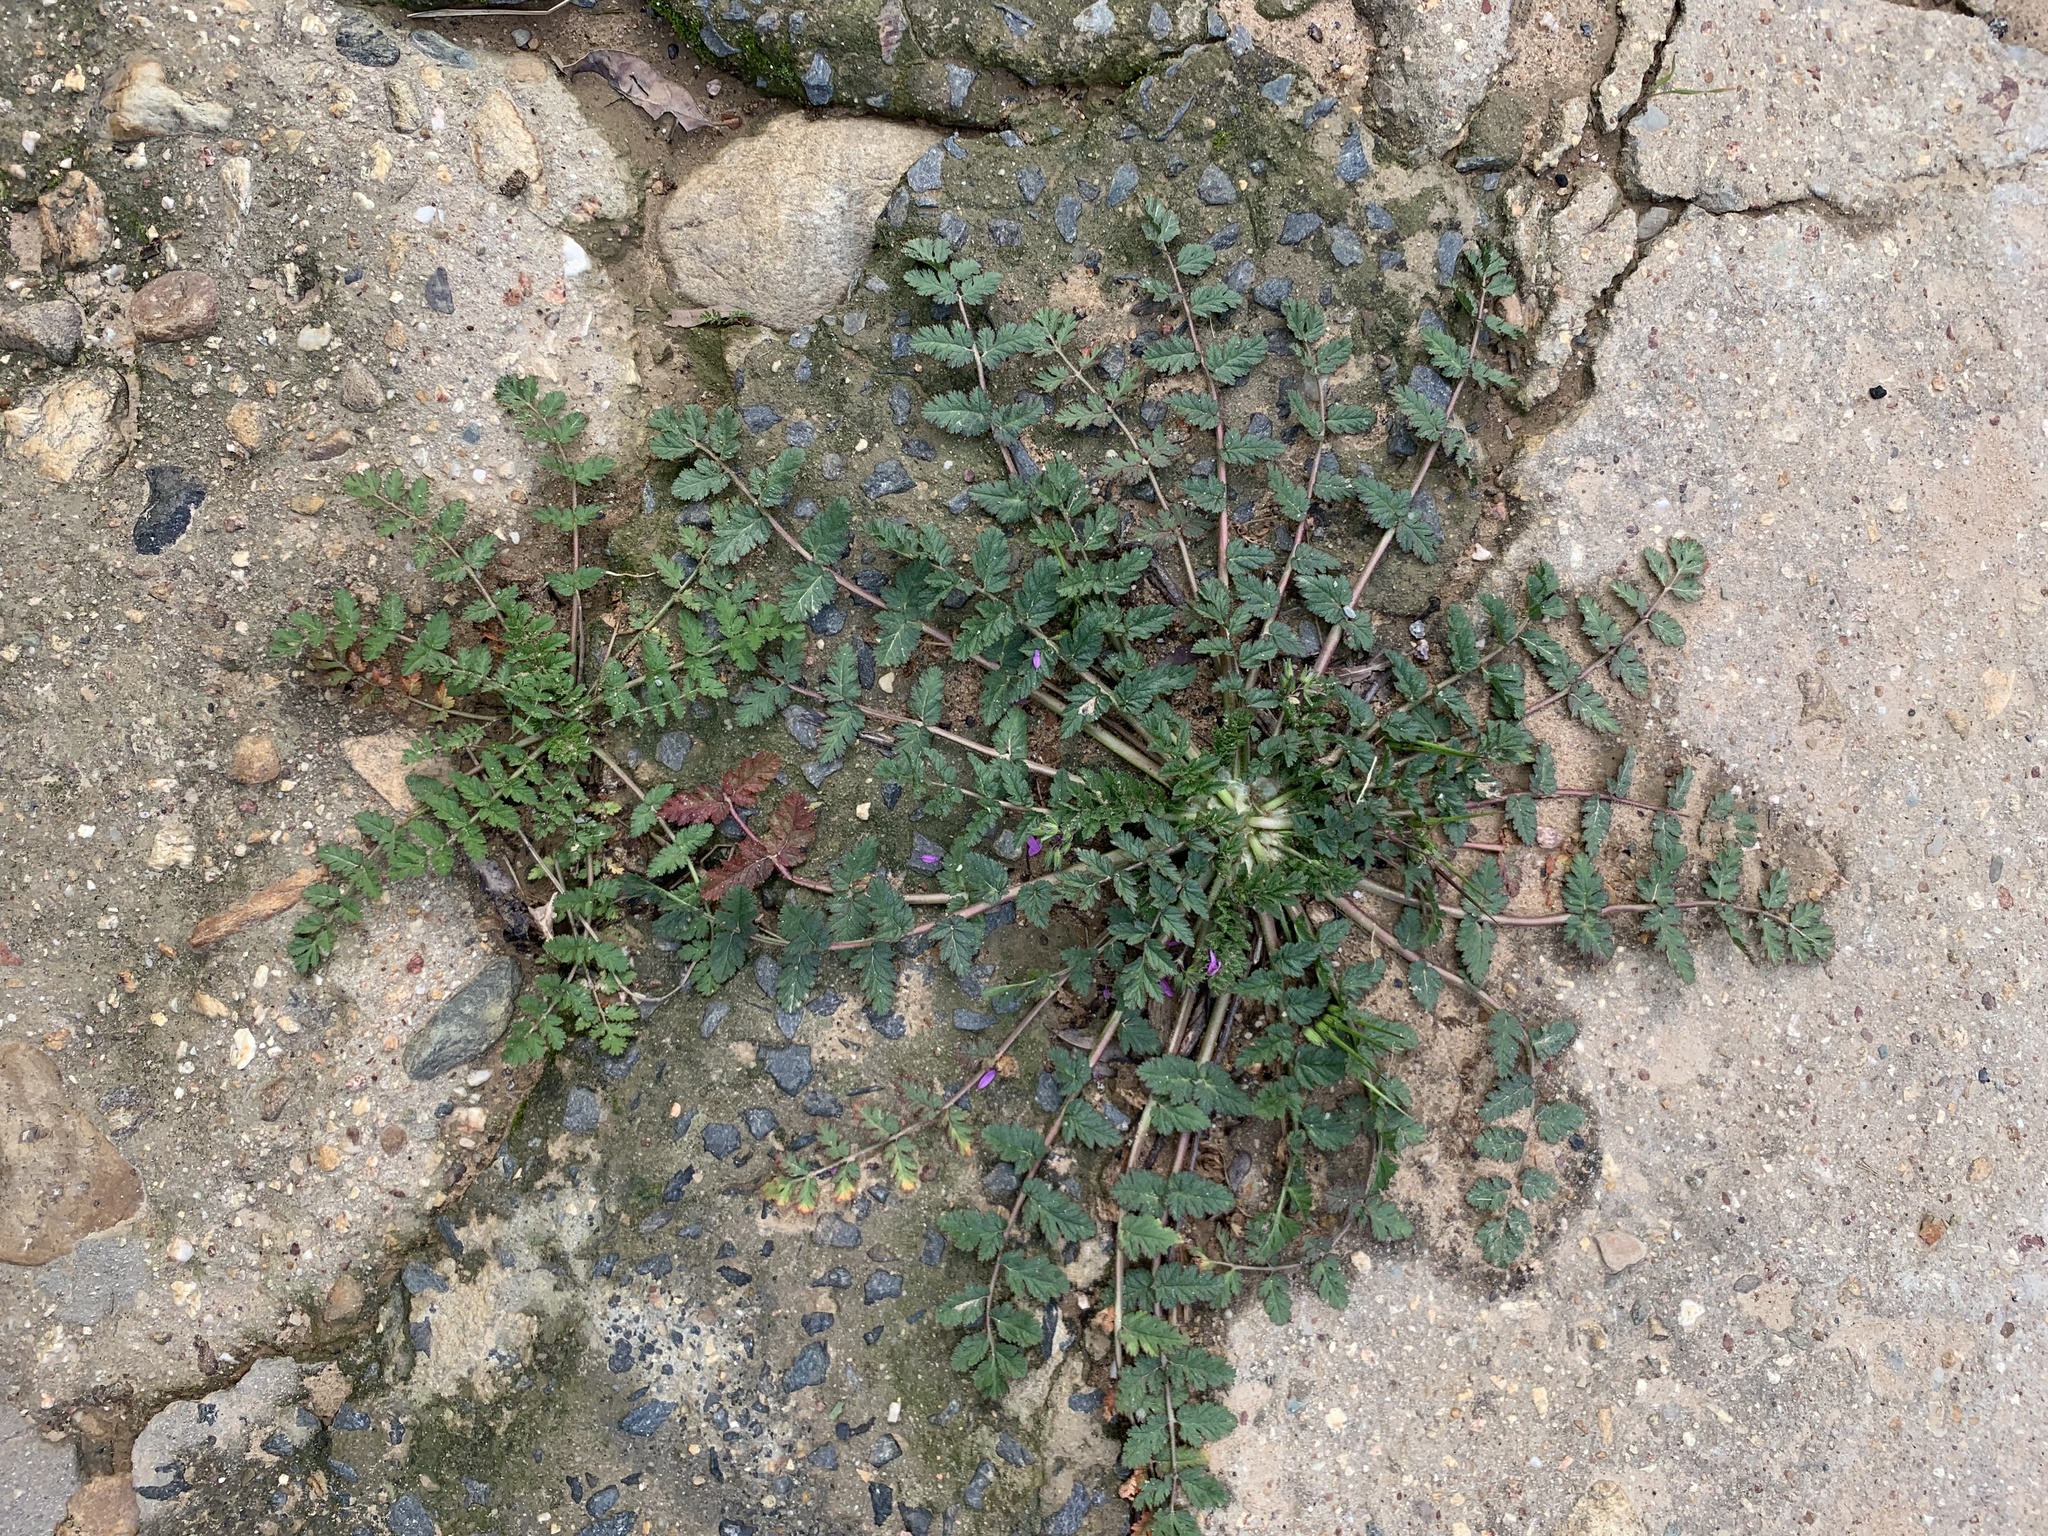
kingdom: Plantae
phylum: Tracheophyta
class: Magnoliopsida
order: Geraniales
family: Geraniaceae
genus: Erodium
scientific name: Erodium moschatum
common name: Musk stork's-bill
